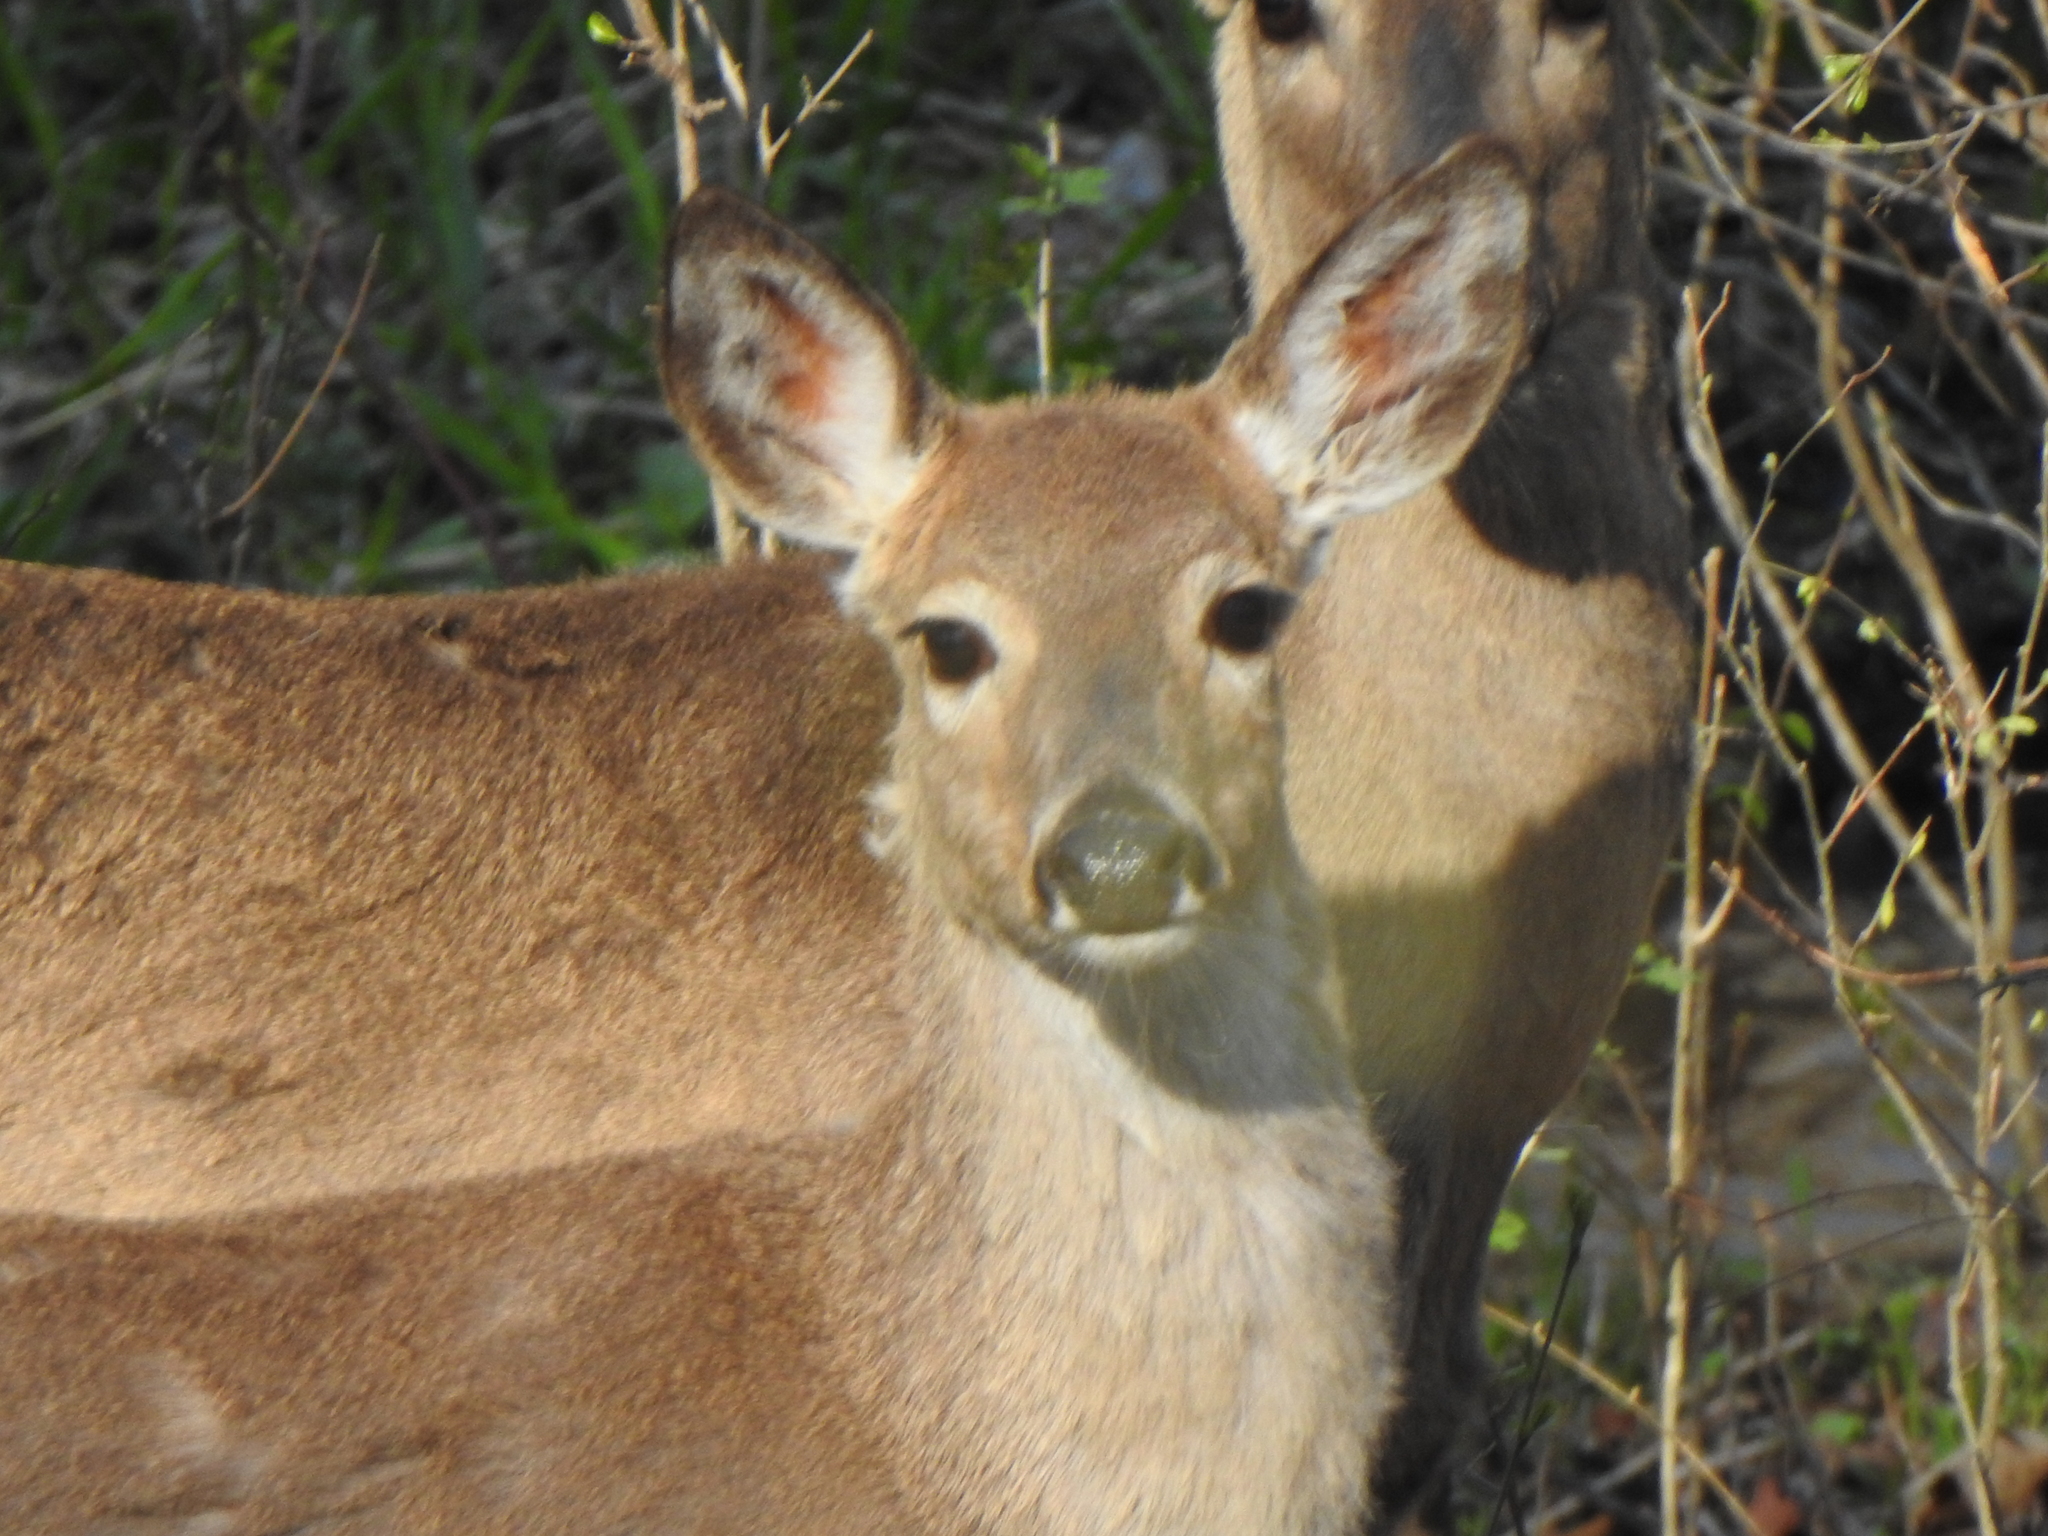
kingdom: Animalia
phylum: Chordata
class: Mammalia
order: Artiodactyla
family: Cervidae
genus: Odocoileus
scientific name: Odocoileus virginianus
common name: White-tailed deer
